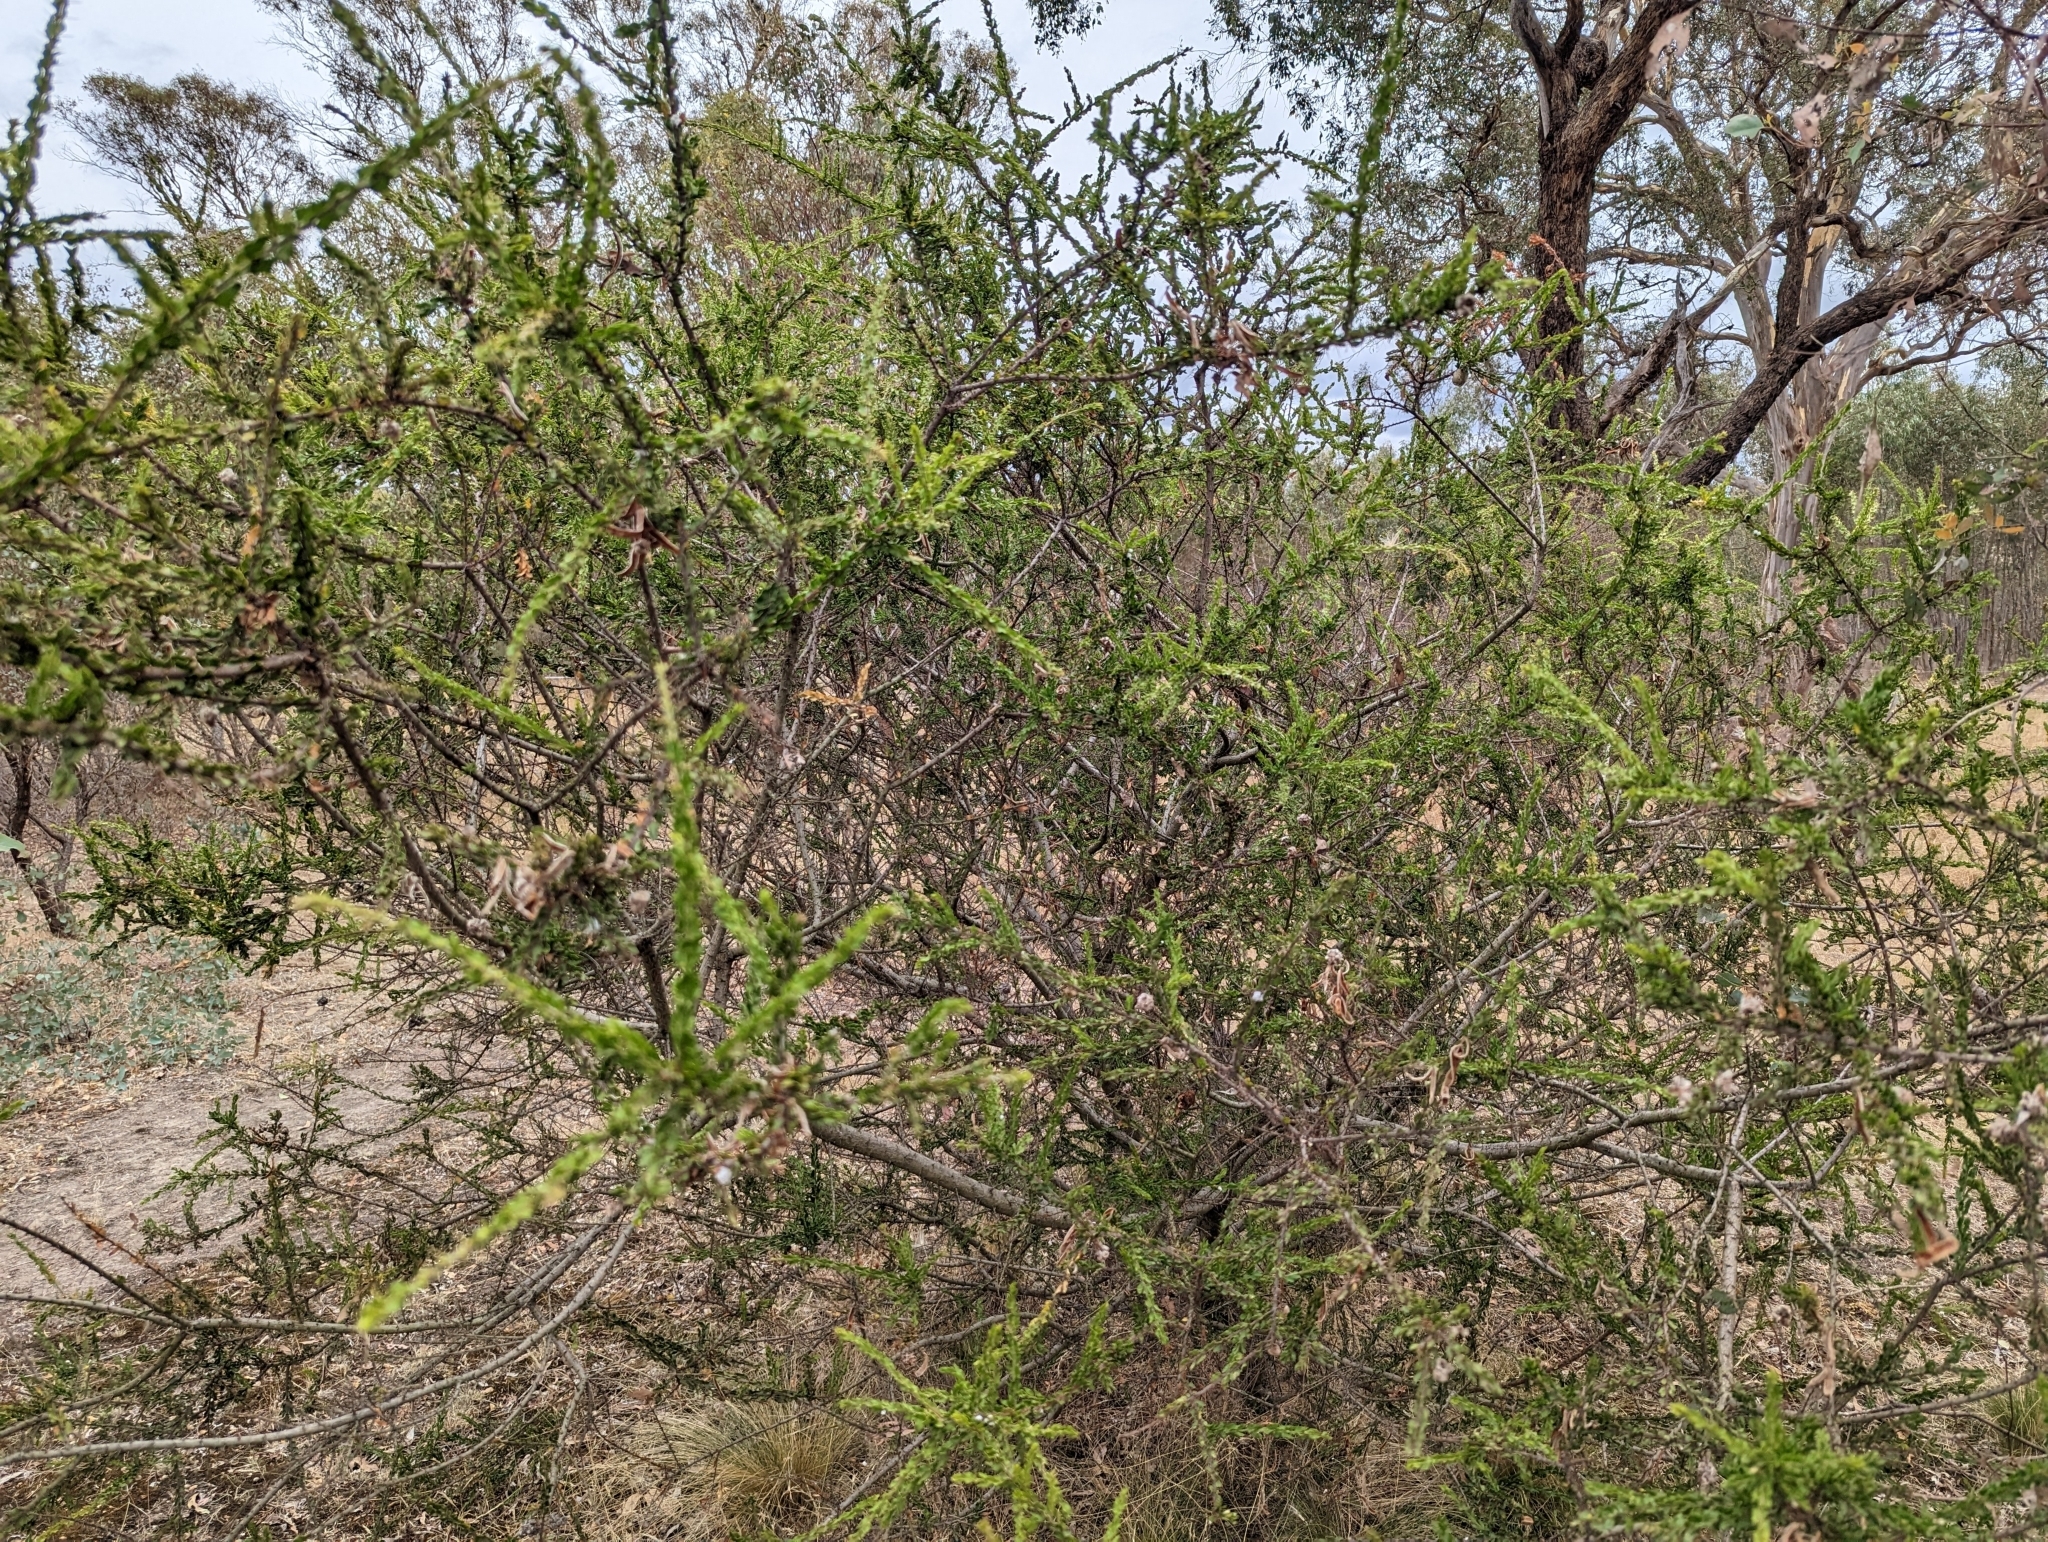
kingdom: Plantae
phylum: Tracheophyta
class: Magnoliopsida
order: Fabales
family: Fabaceae
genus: Acacia
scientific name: Acacia paradoxa
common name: Paradox acacia
